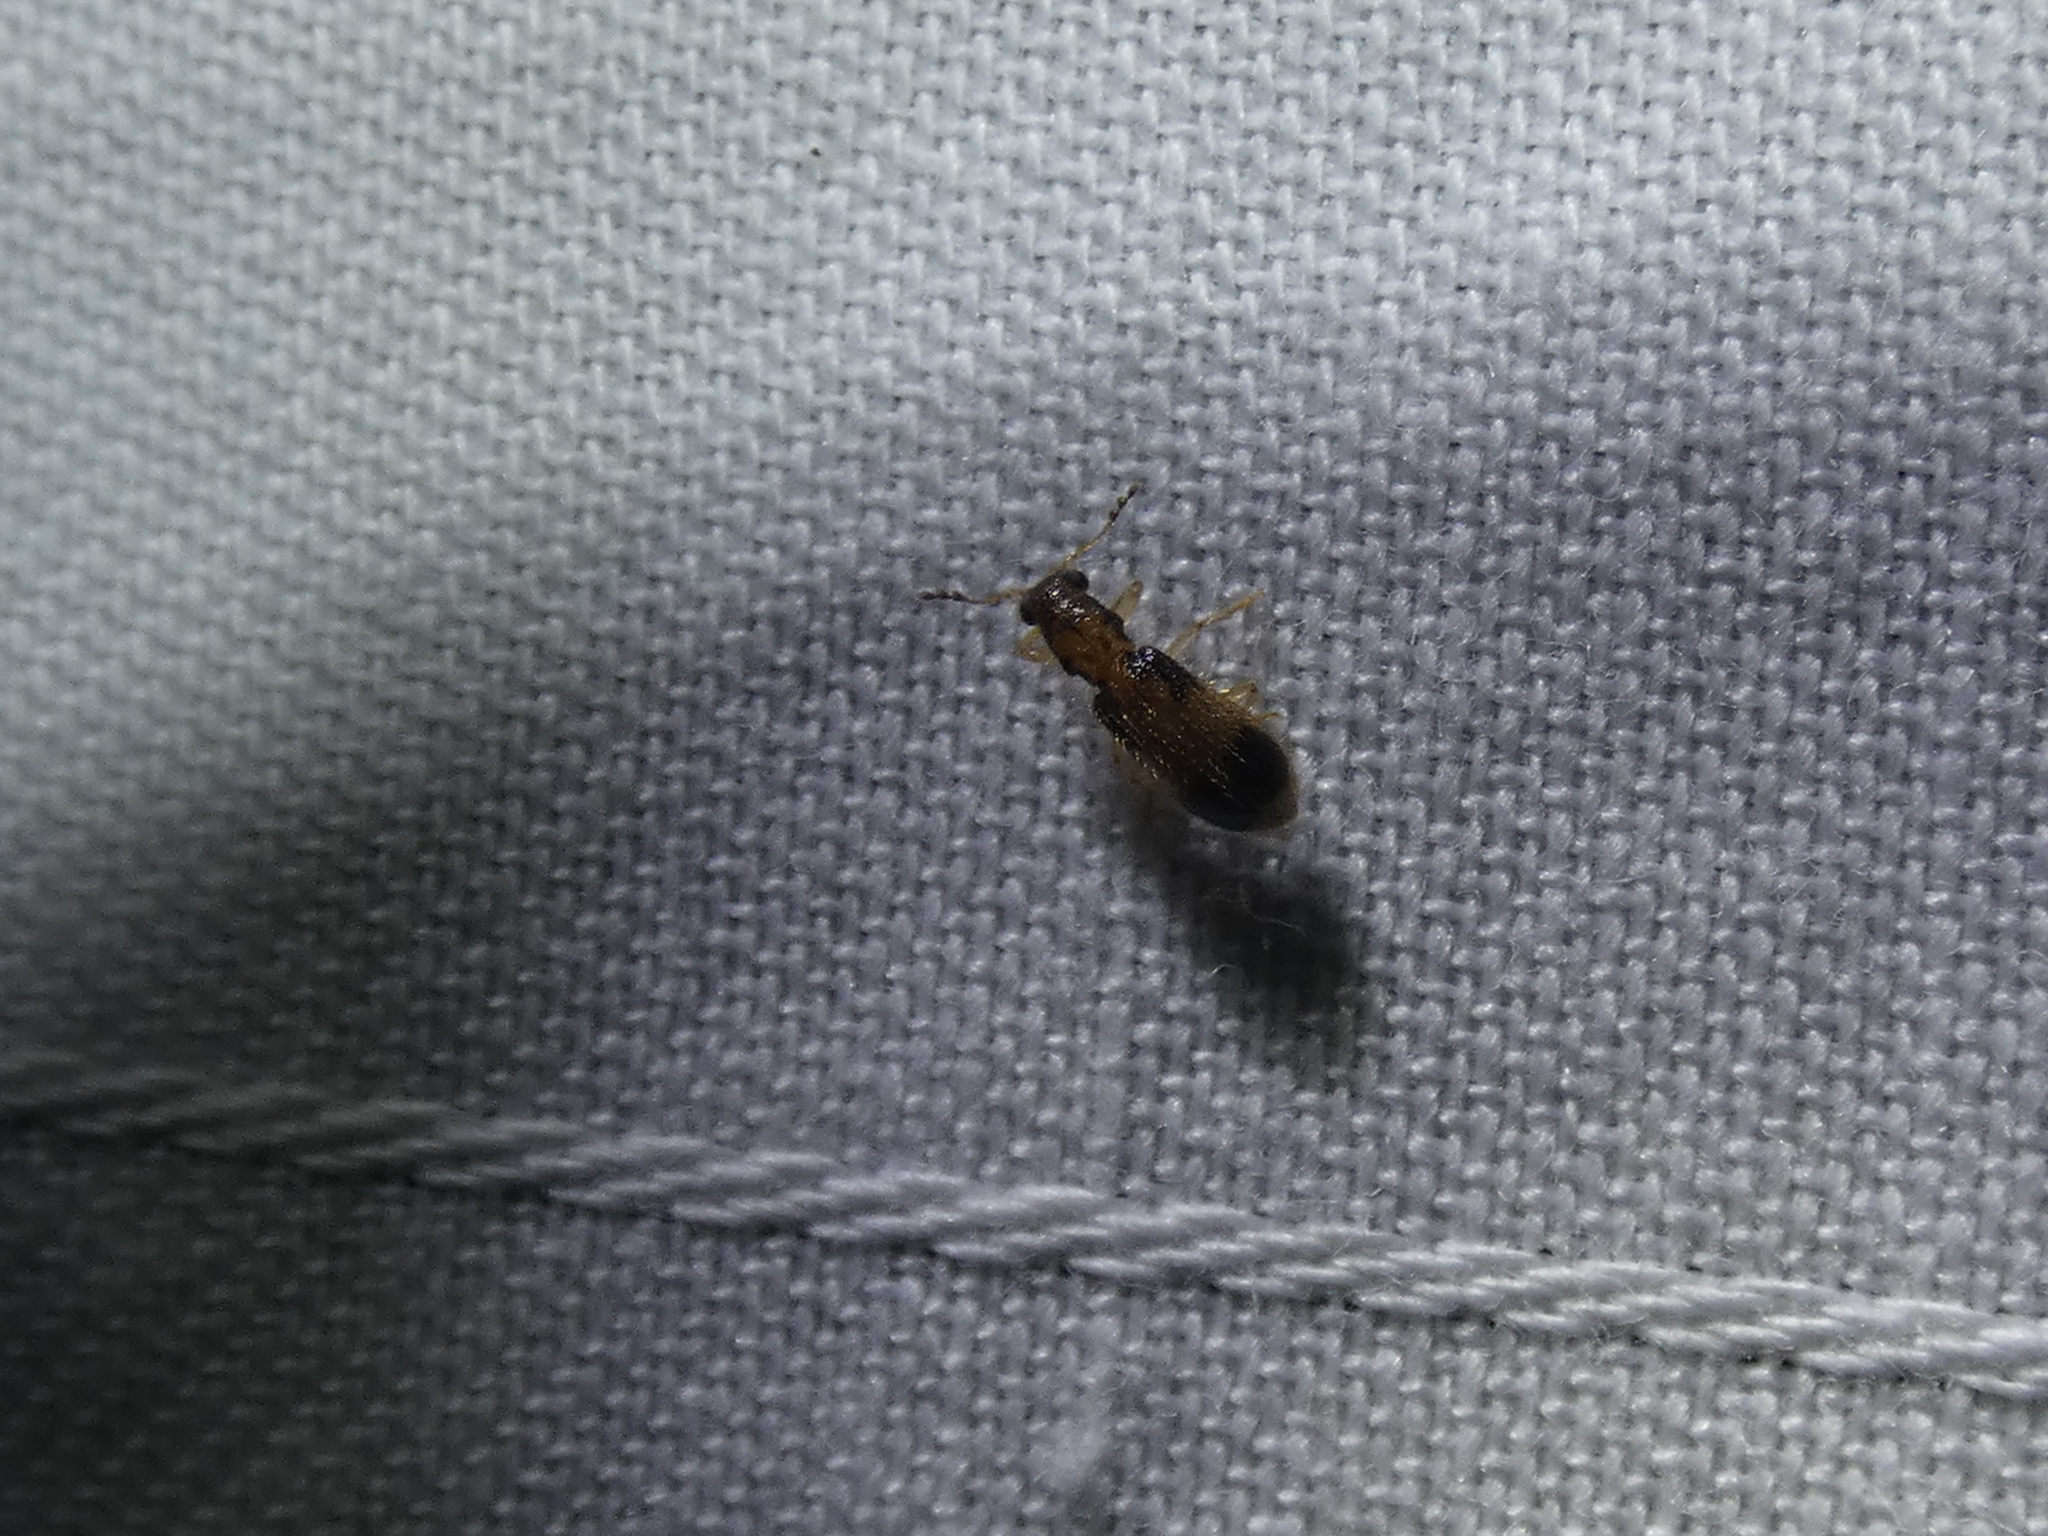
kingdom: Animalia
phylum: Arthropoda
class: Insecta
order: Coleoptera
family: Cleridae
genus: Cregya
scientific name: Cregya mixta
